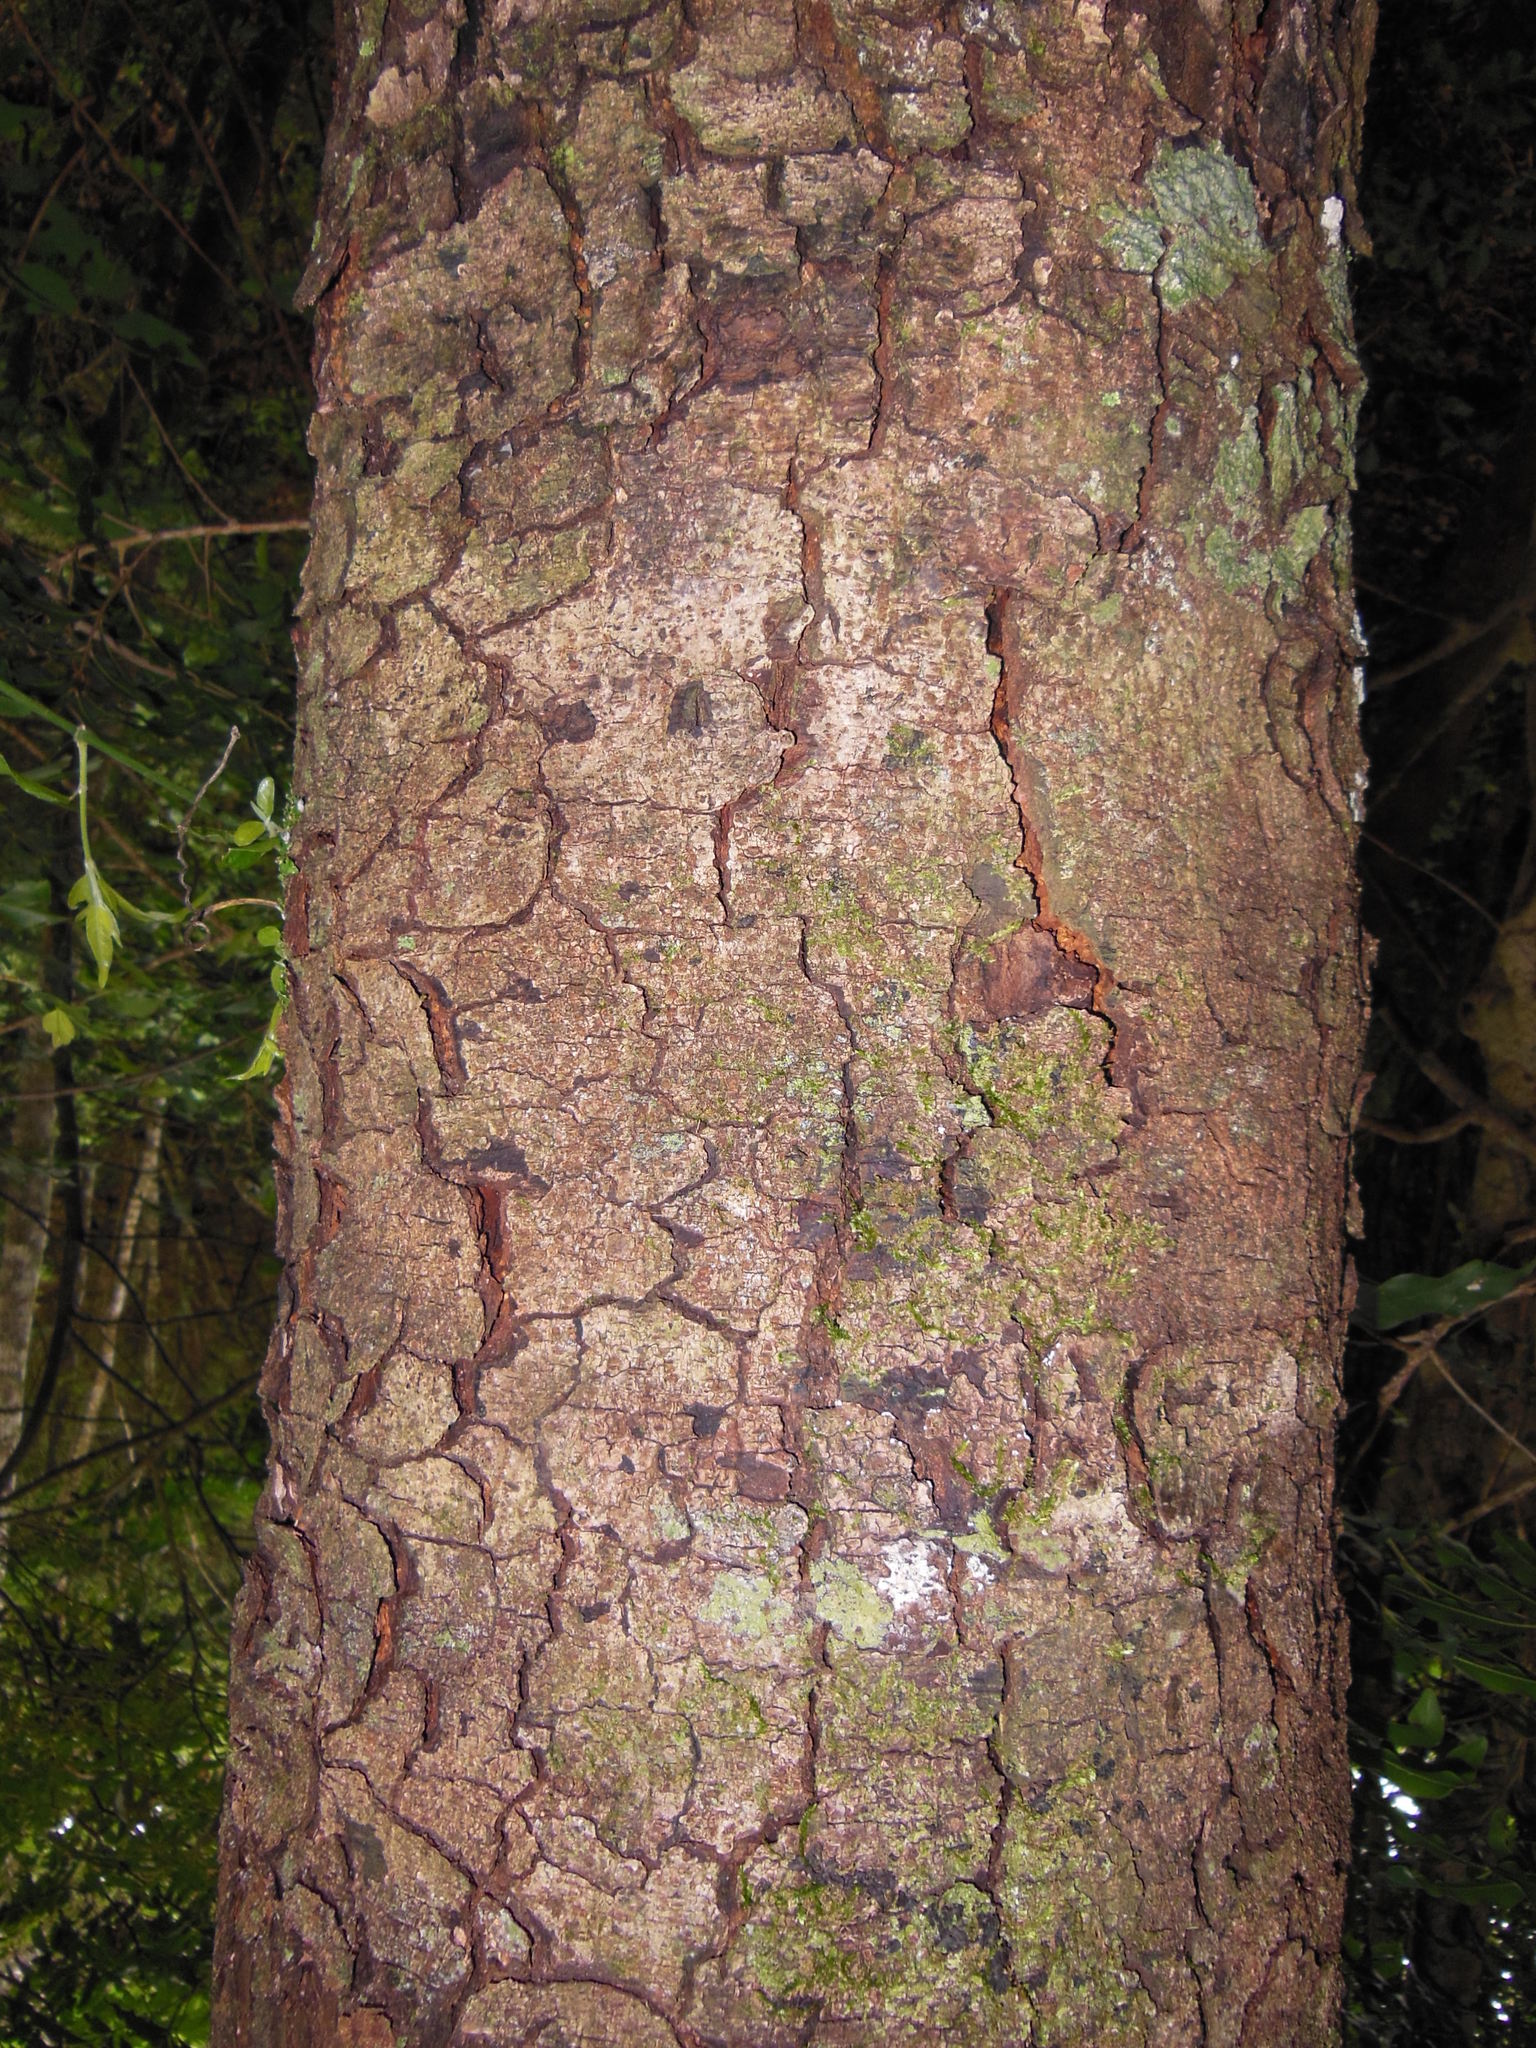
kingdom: Plantae
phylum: Tracheophyta
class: Magnoliopsida
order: Rosales
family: Rosaceae
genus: Prunus
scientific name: Prunus chiapensis
